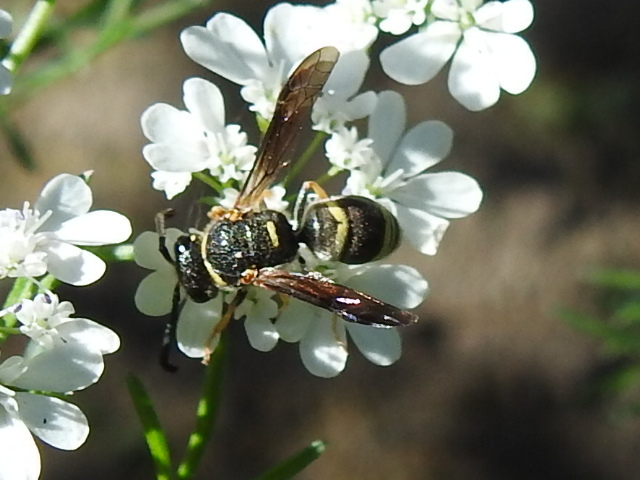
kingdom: Animalia
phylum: Arthropoda
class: Insecta
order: Hymenoptera
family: Eumenidae
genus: Euodynerus
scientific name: Euodynerus foraminatus
